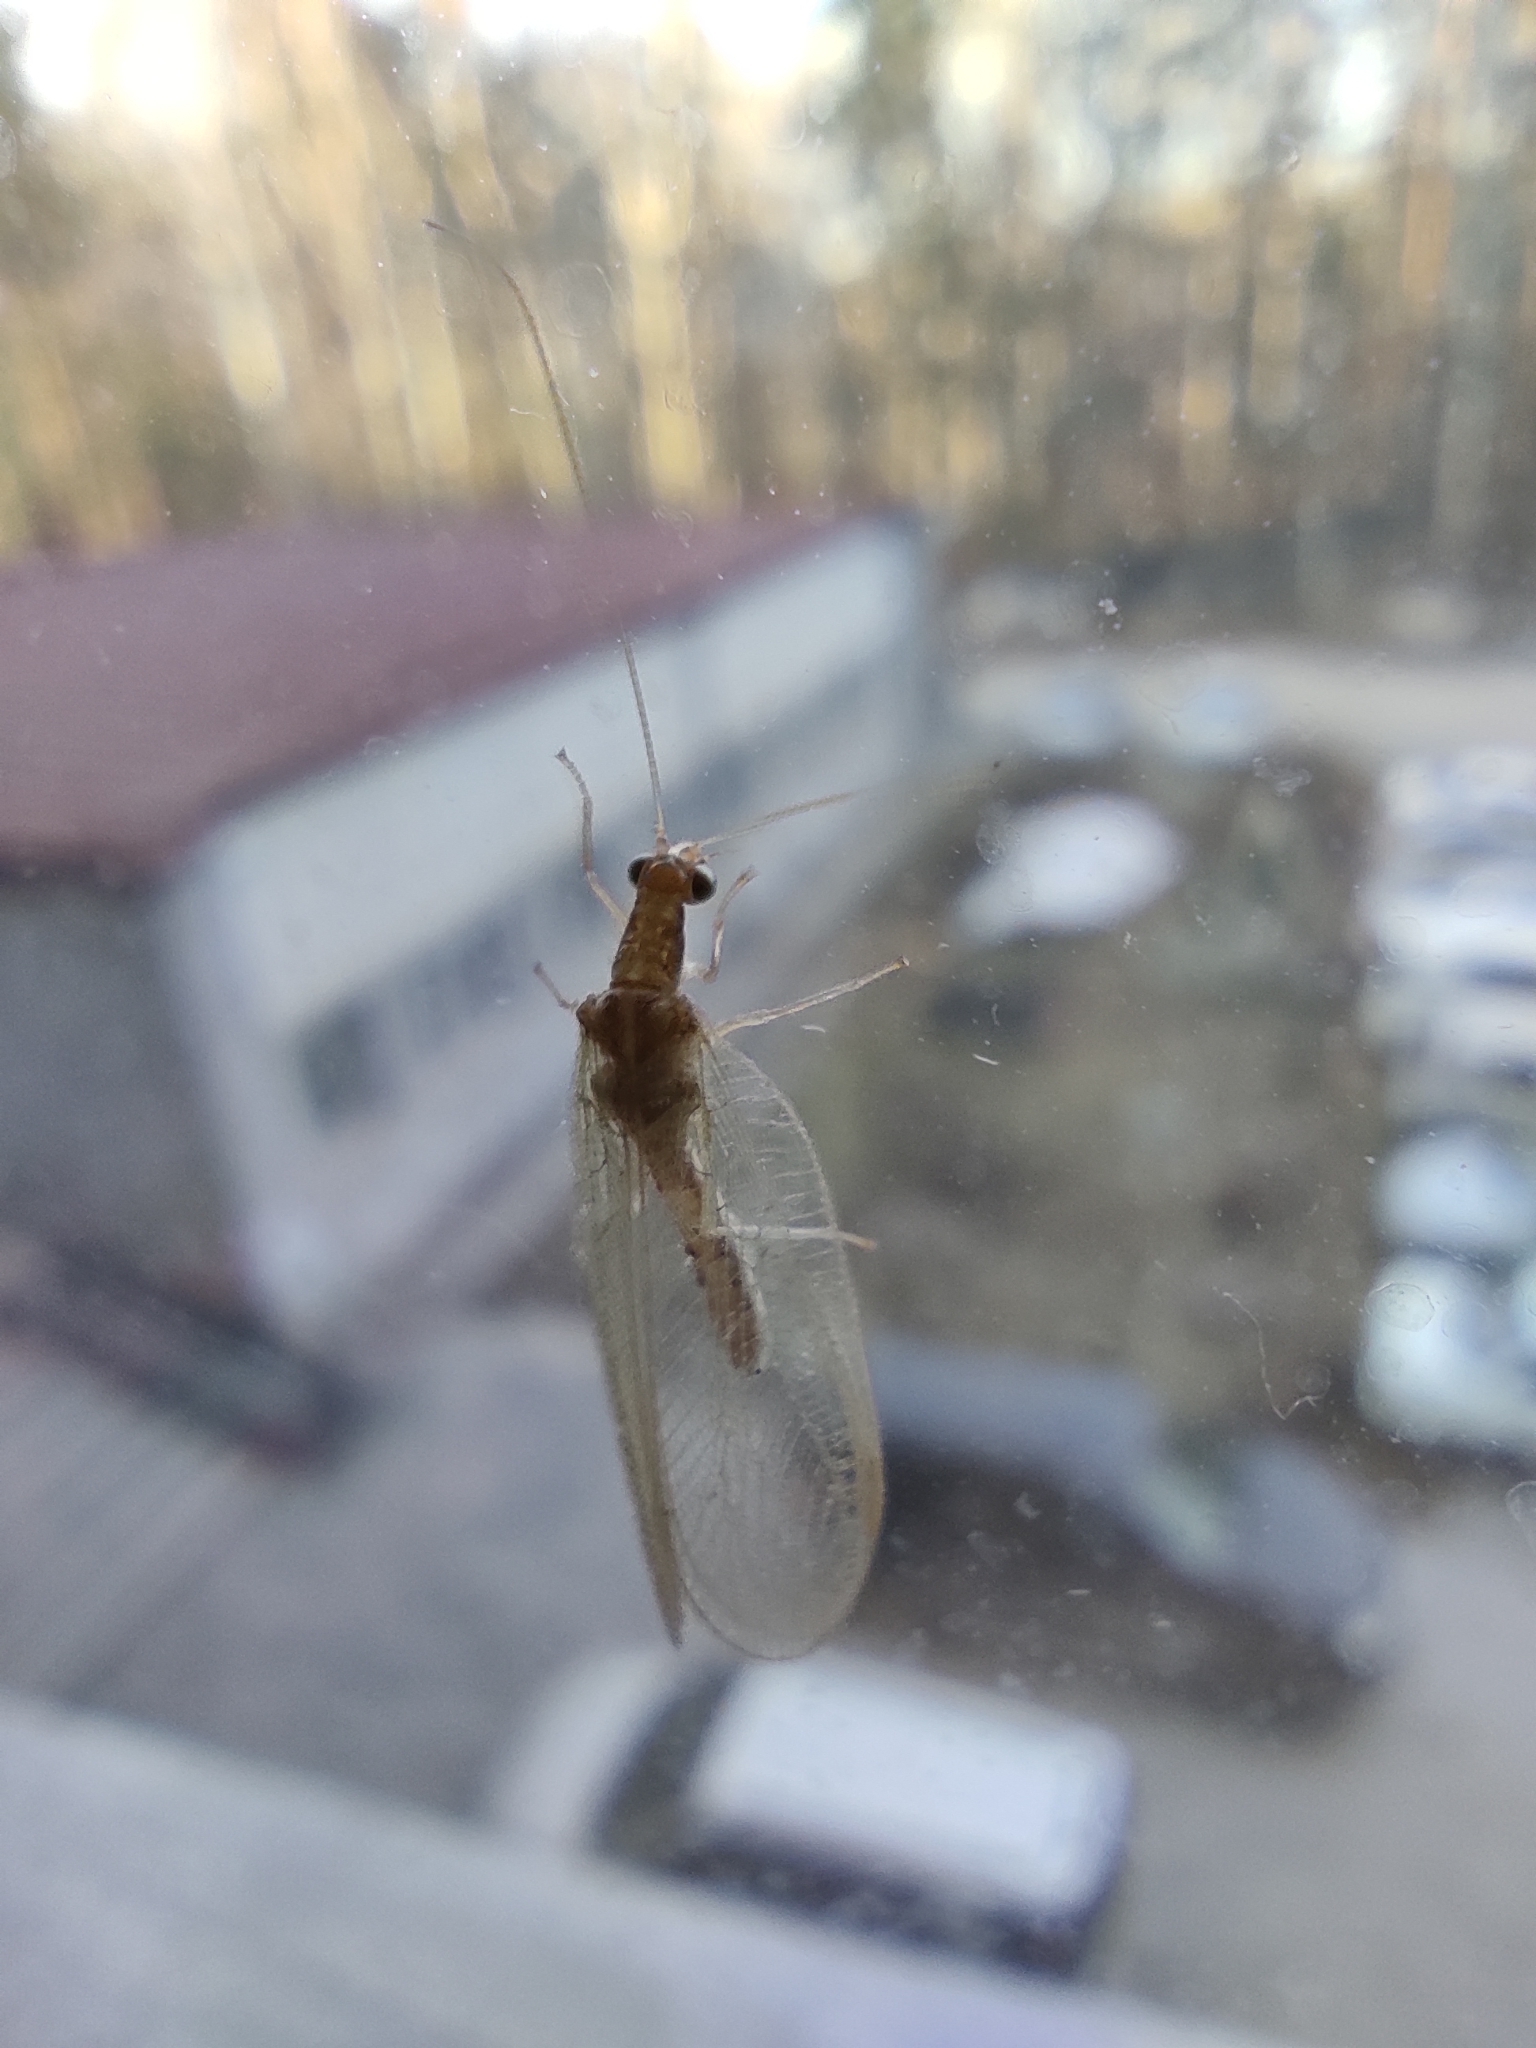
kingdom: Animalia
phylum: Arthropoda
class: Insecta
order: Neuroptera
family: Chrysopidae
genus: Chrysoperla
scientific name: Chrysoperla
